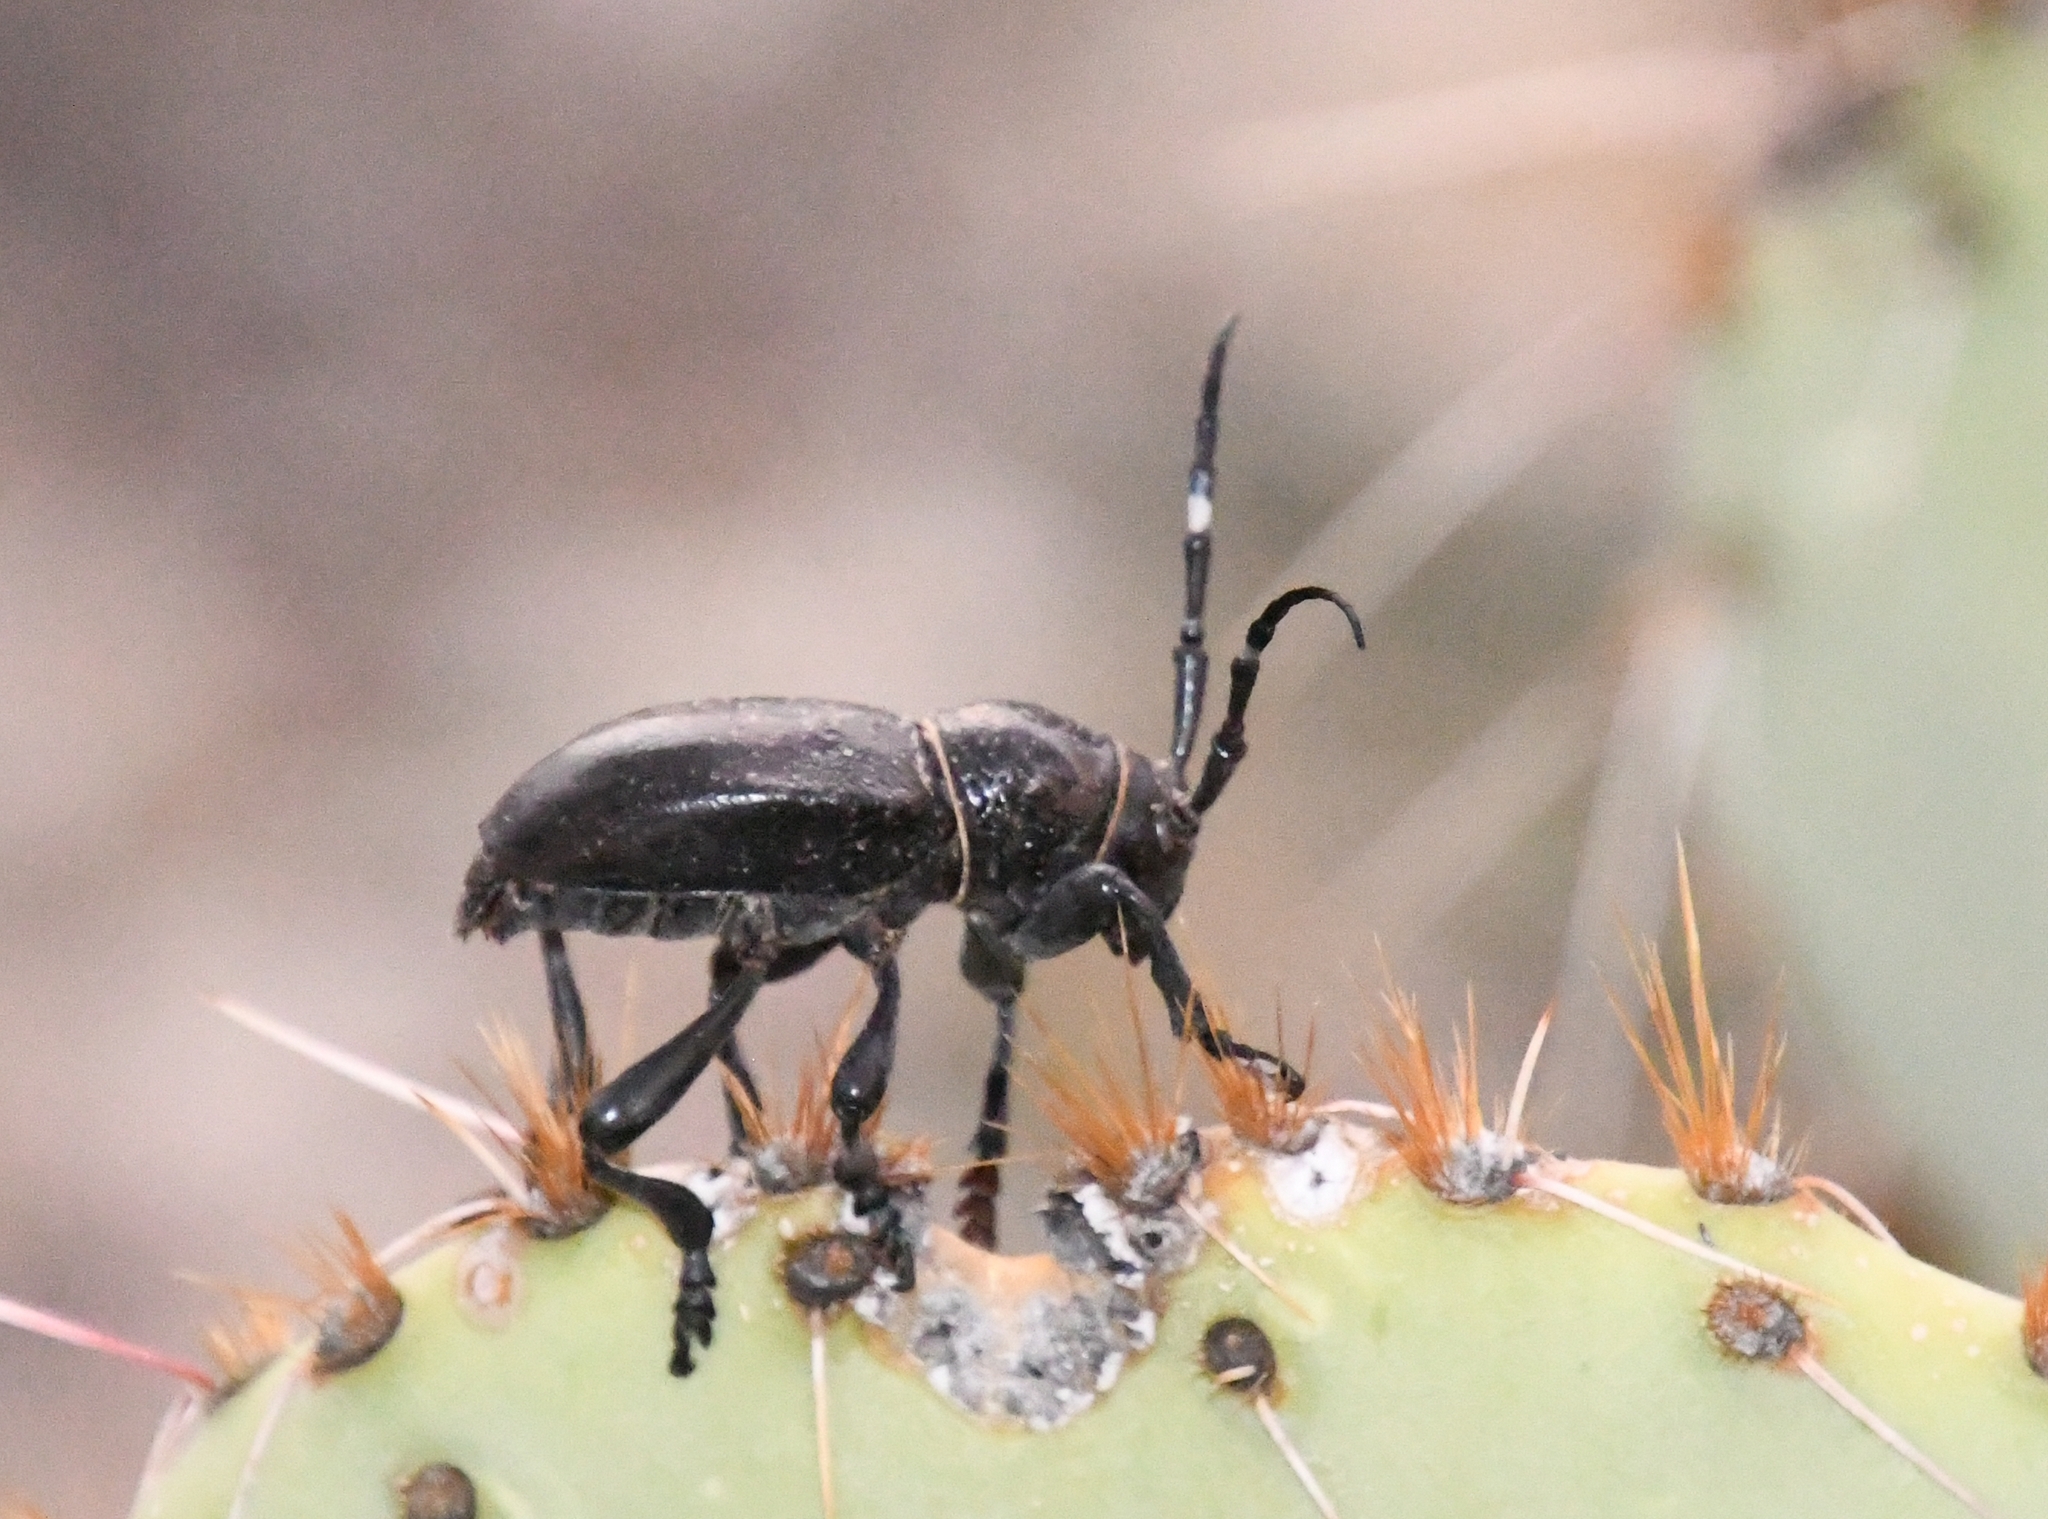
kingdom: Animalia
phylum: Arthropoda
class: Insecta
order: Coleoptera
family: Cerambycidae
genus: Moneilema
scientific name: Moneilema gigas
